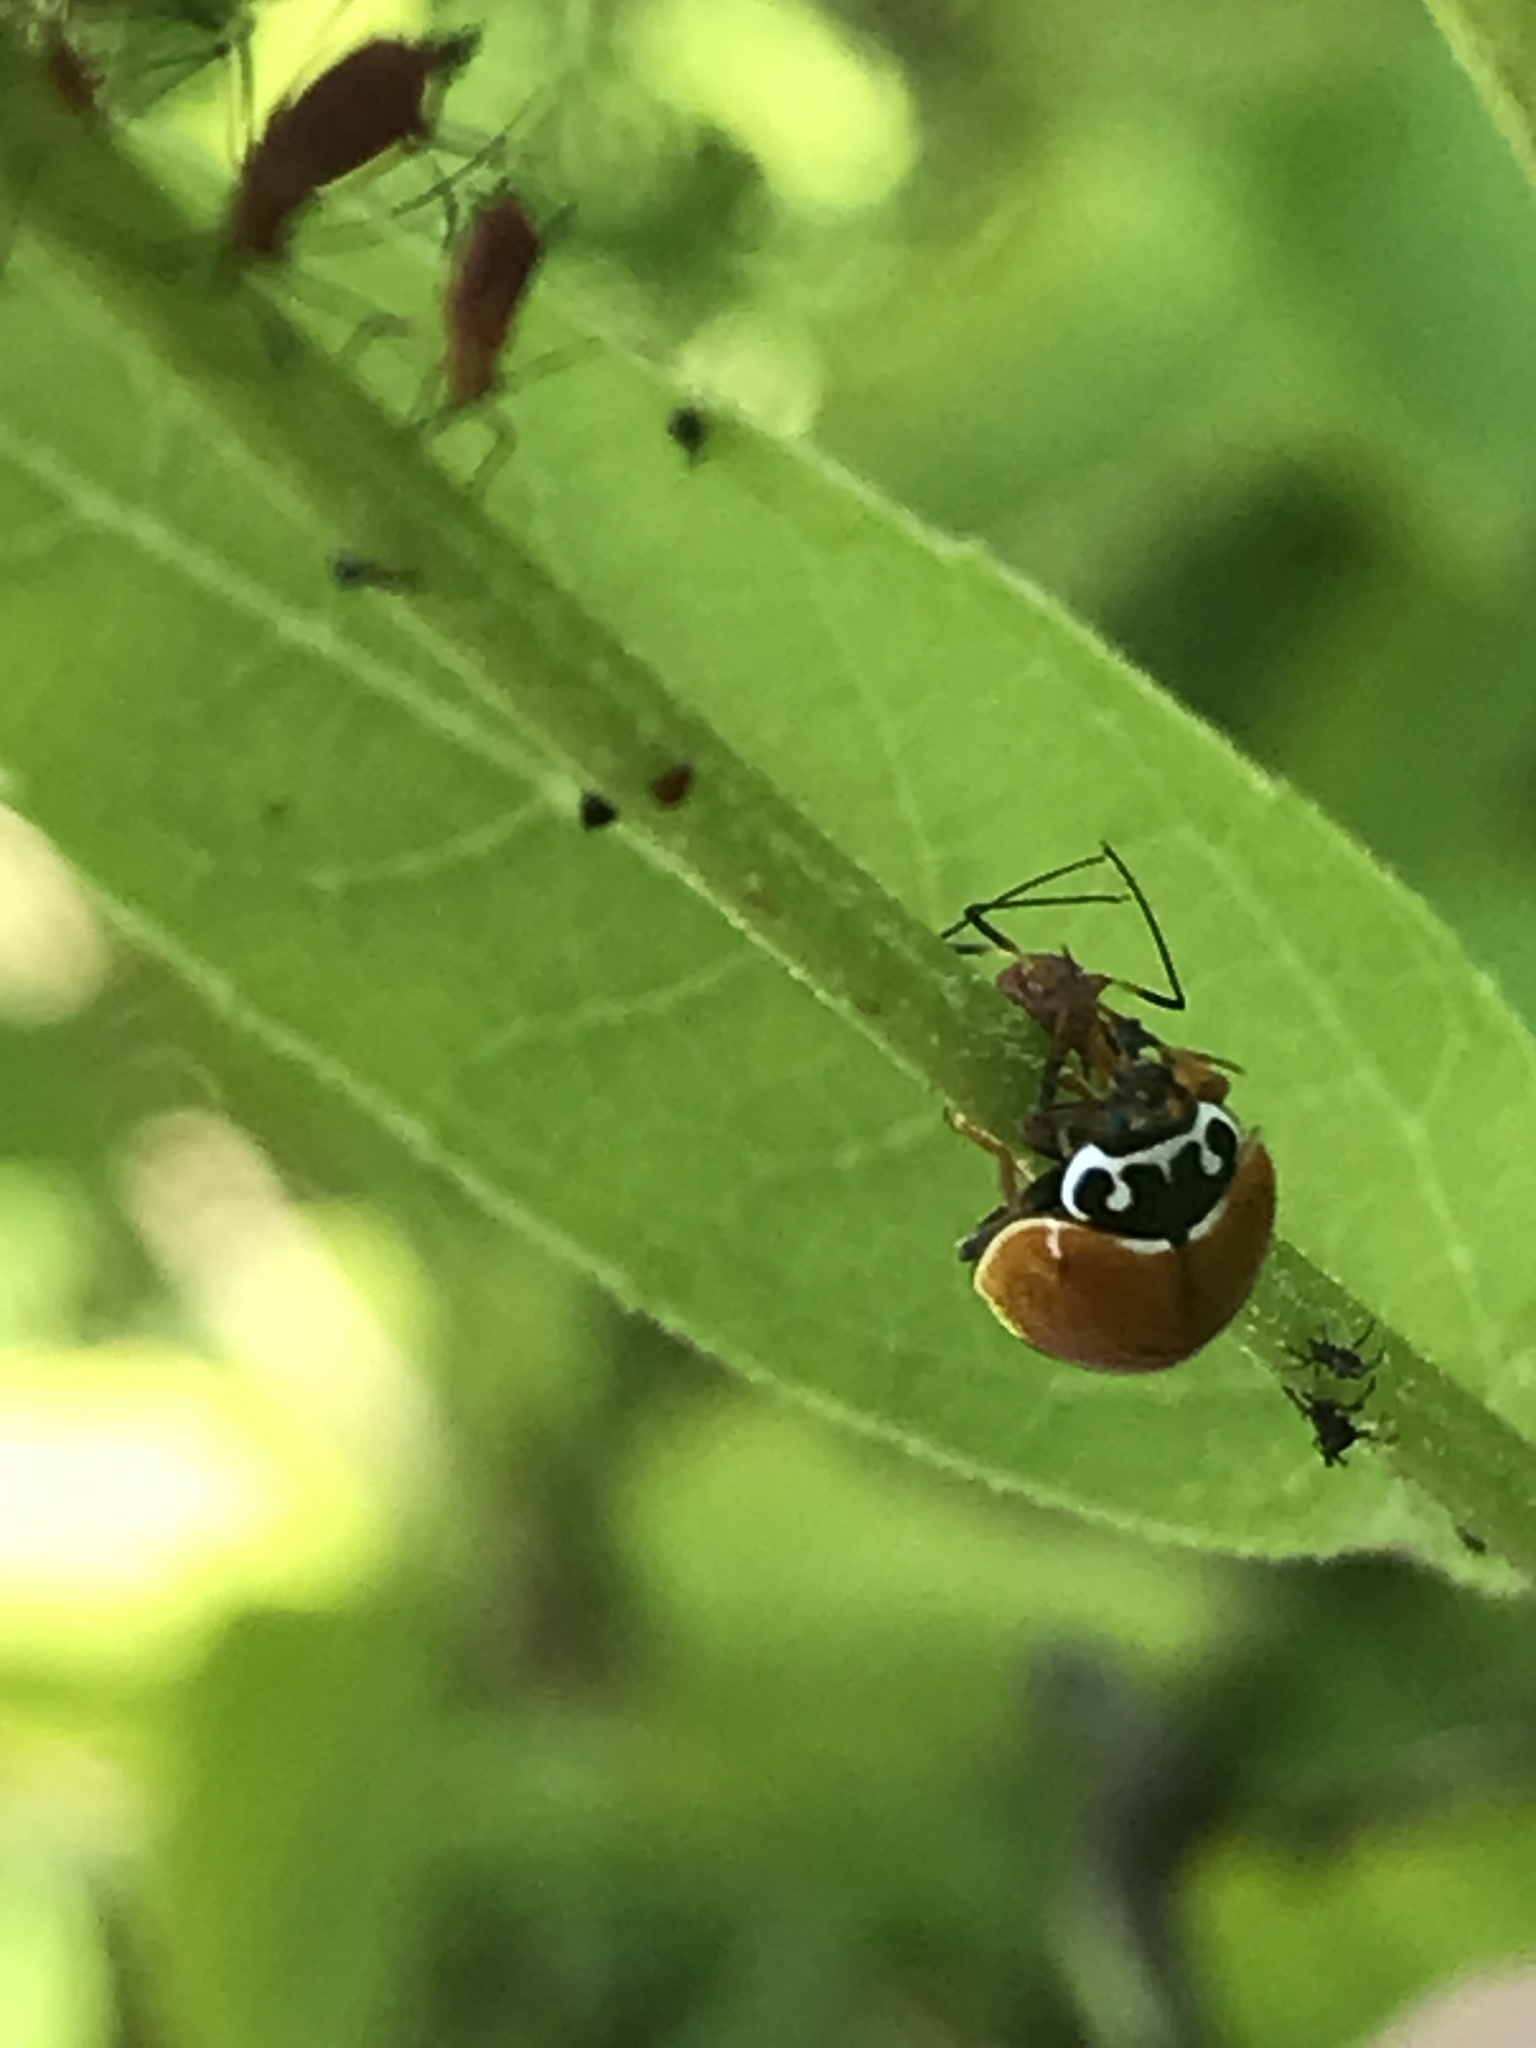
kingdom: Animalia
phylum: Arthropoda
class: Insecta
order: Coleoptera
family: Coccinellidae
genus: Cycloneda
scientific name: Cycloneda munda
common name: Polished lady beetle
